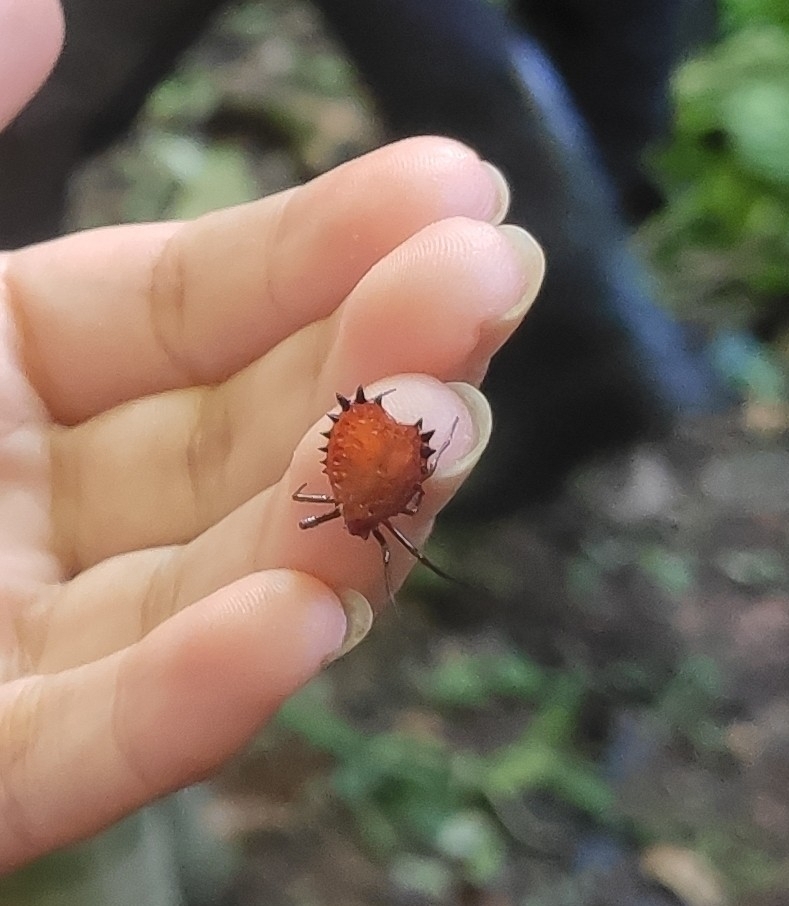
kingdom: Animalia
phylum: Arthropoda
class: Arachnida
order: Araneae
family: Araneidae
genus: Micrathena
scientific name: Micrathena ruschii
